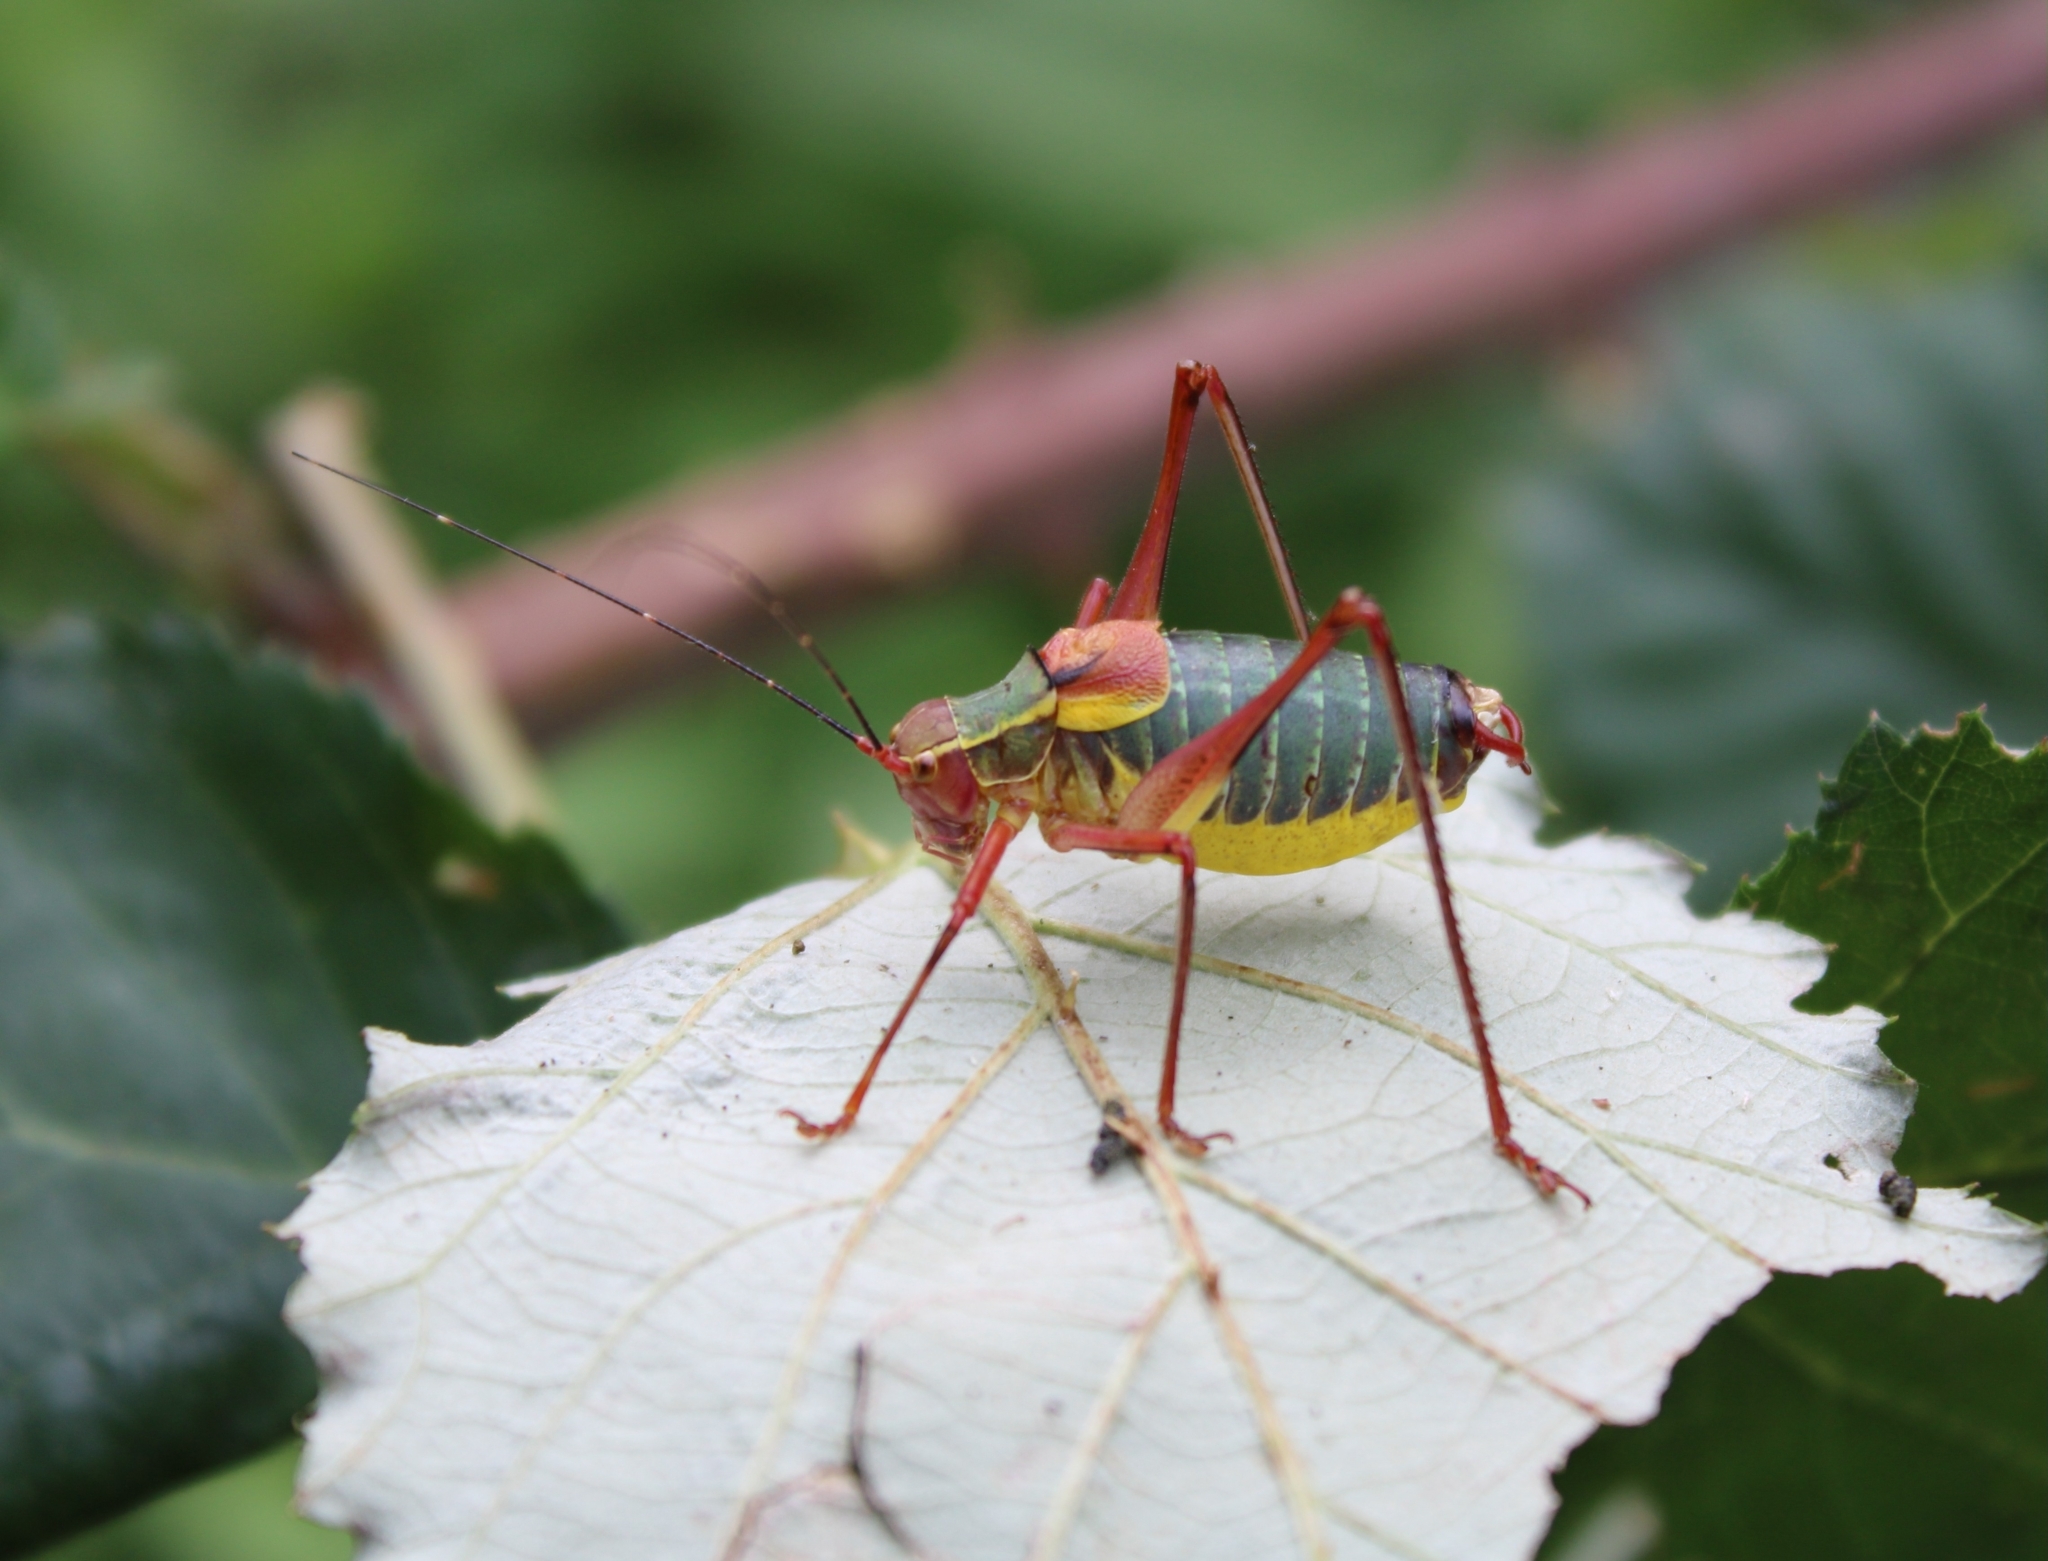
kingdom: Animalia
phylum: Arthropoda
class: Insecta
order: Orthoptera
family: Tettigoniidae
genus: Barbitistes
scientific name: Barbitistes obtusus
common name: Alpine saw bush-cricket
